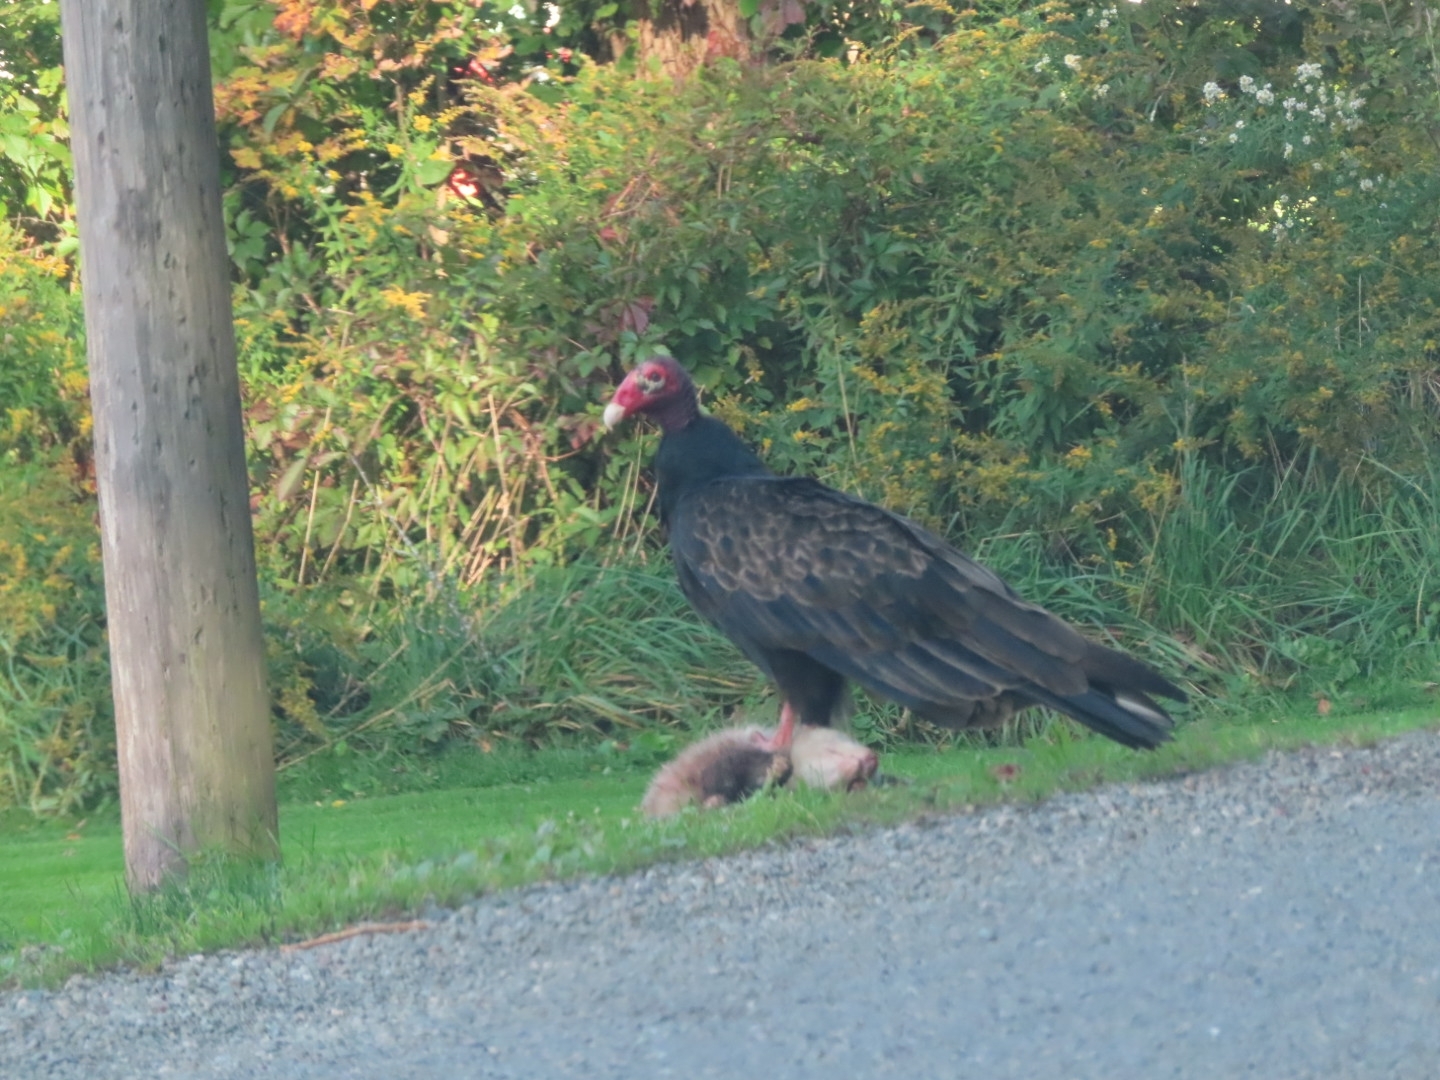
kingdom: Animalia
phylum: Chordata
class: Aves
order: Accipitriformes
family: Cathartidae
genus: Cathartes
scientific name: Cathartes aura
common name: Turkey vulture
